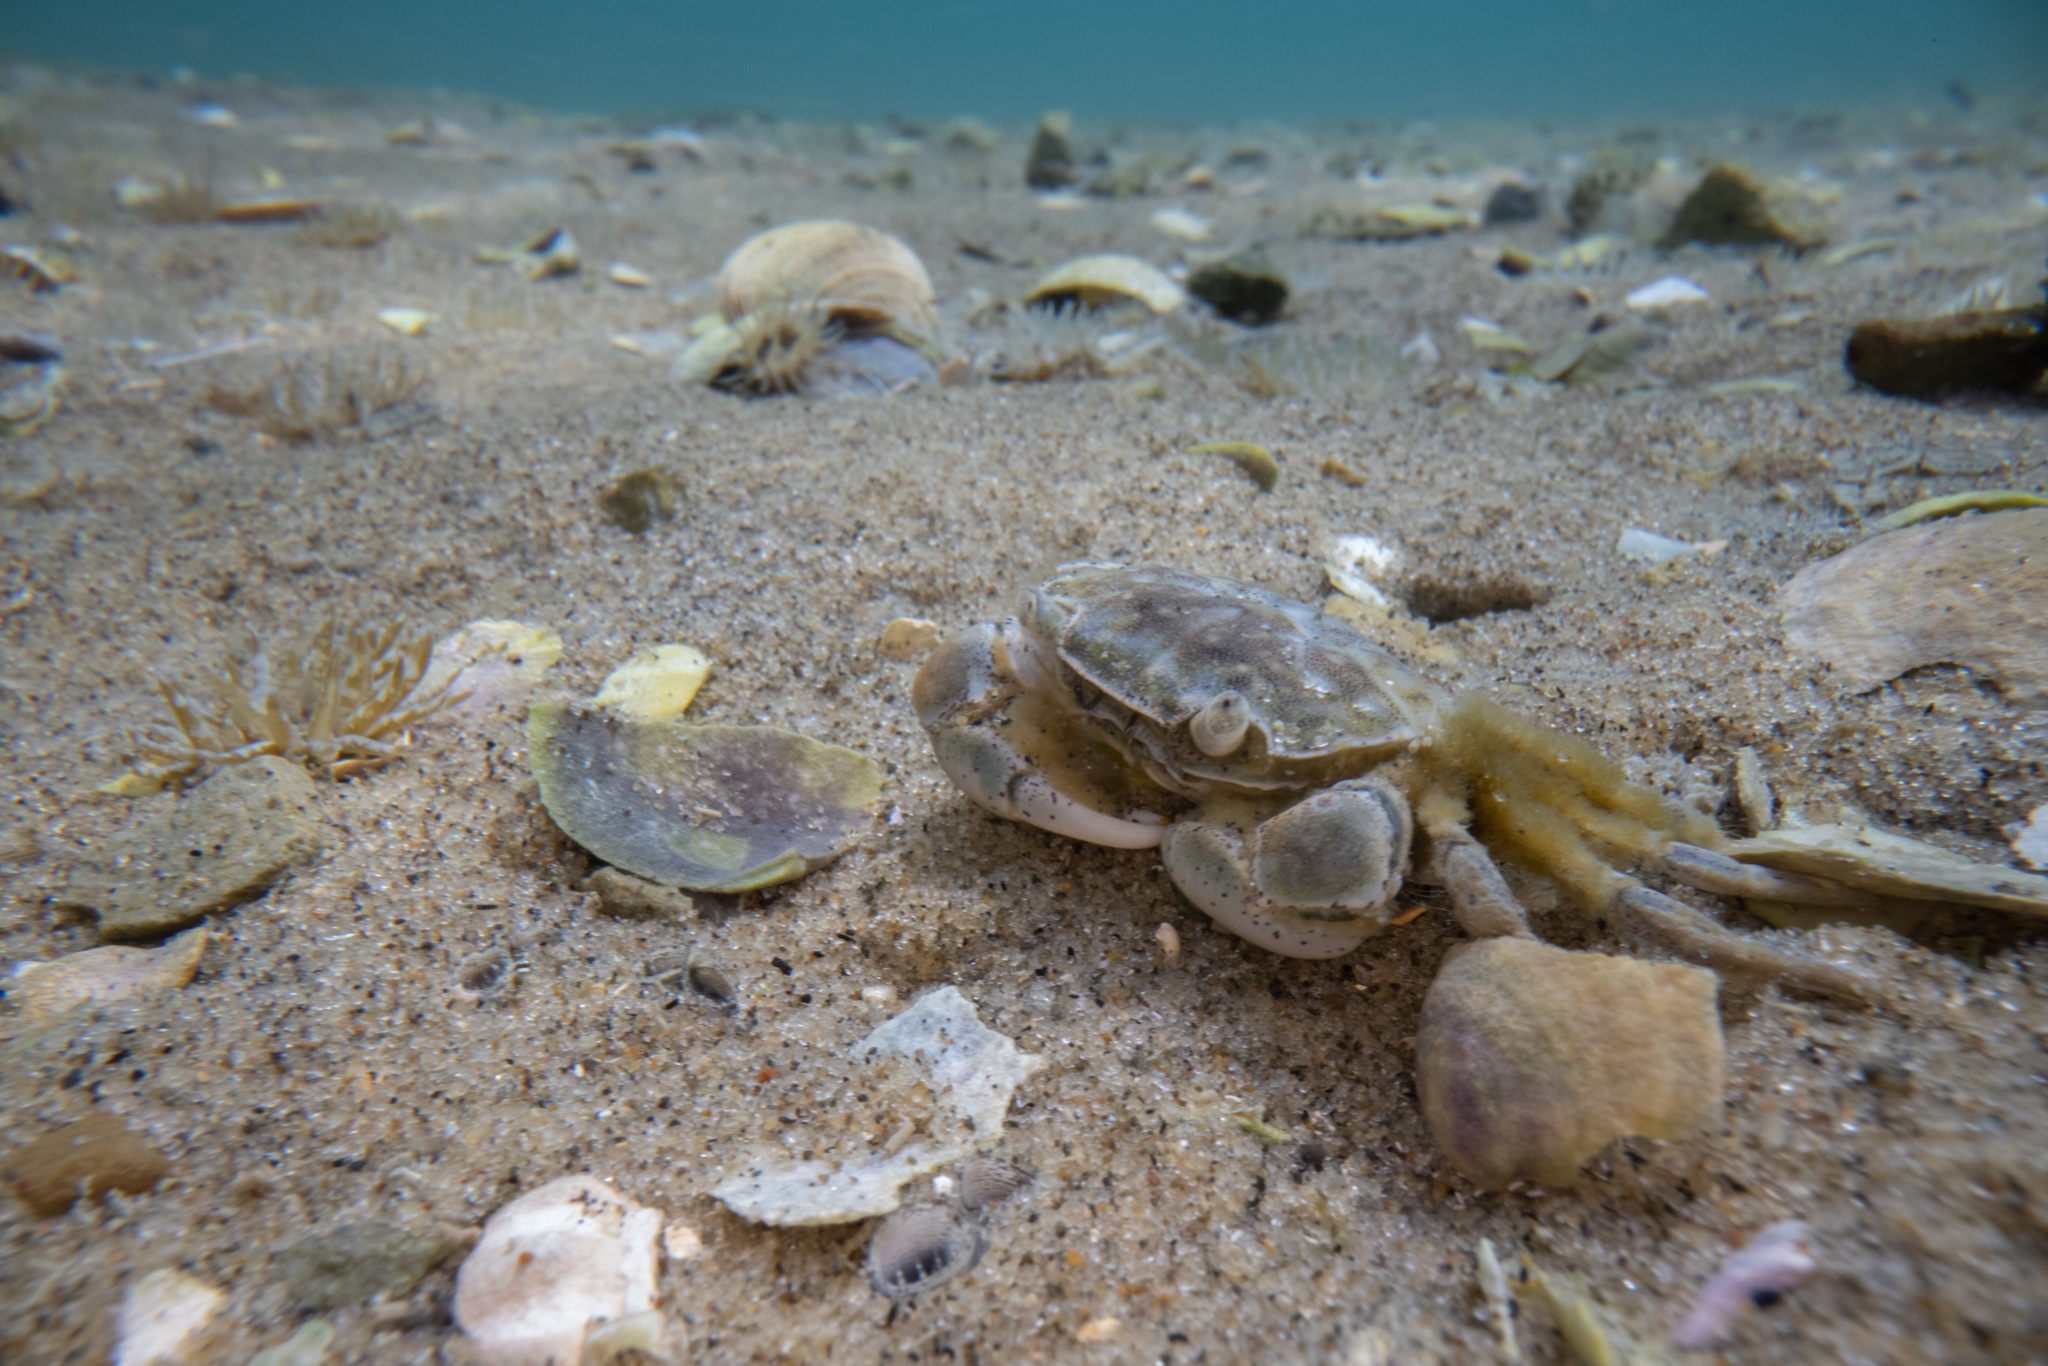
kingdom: Animalia
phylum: Arthropoda
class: Malacostraca
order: Decapoda
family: Varunidae
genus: Hemigrapsus
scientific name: Hemigrapsus crenulatus
